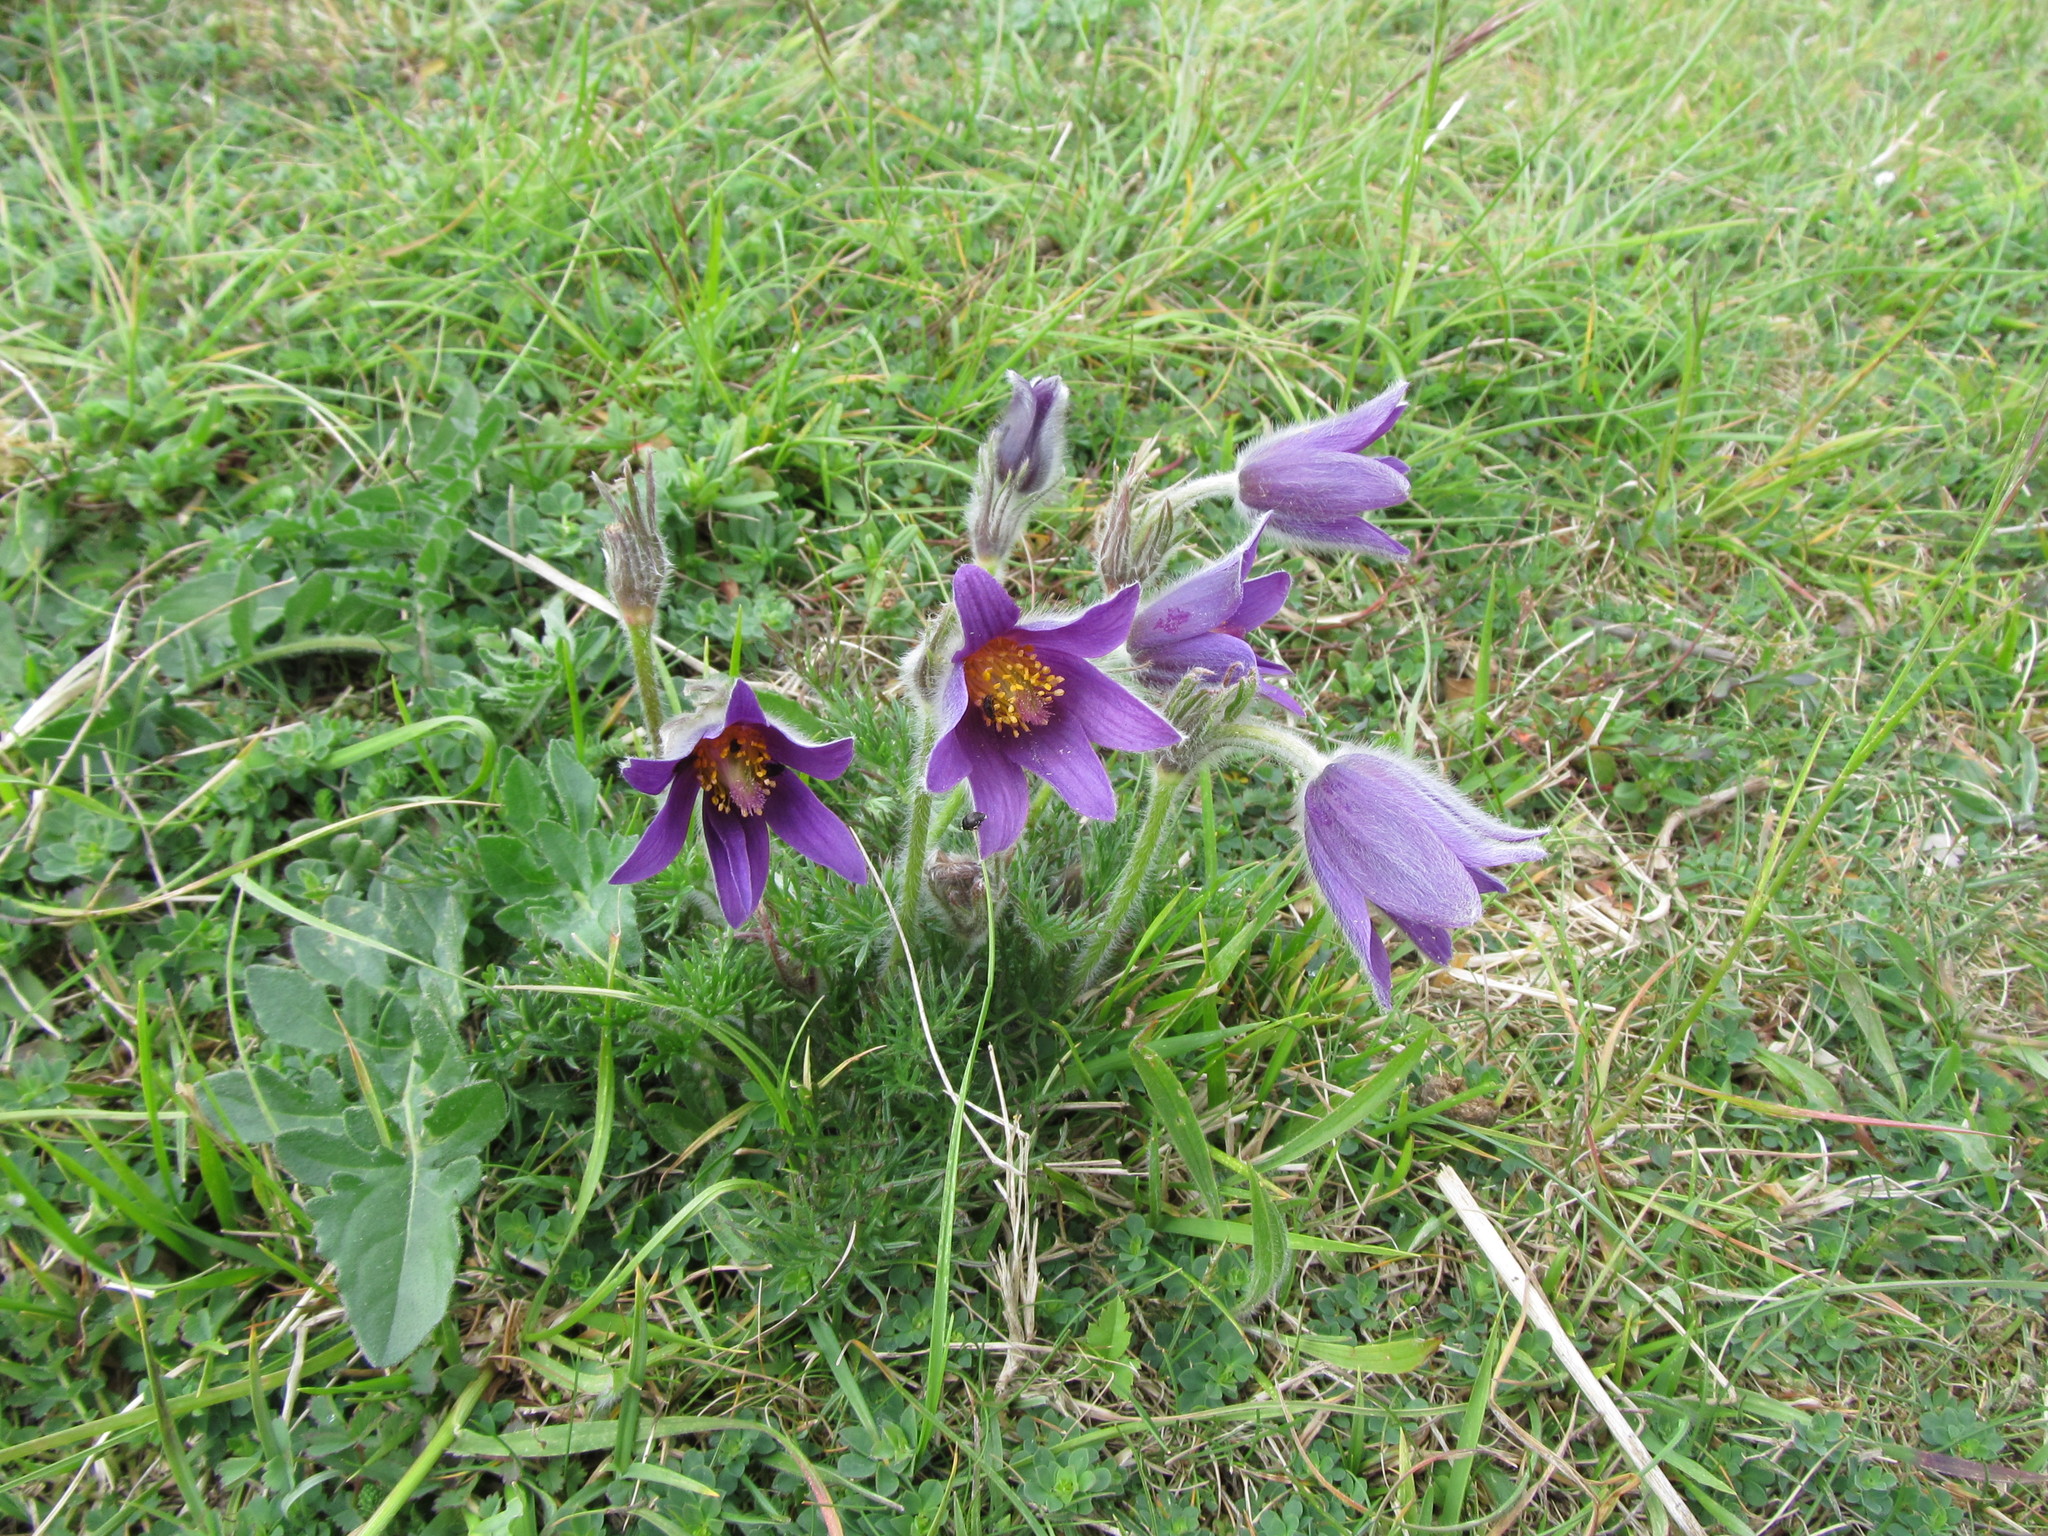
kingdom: Plantae
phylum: Tracheophyta
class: Magnoliopsida
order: Ranunculales
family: Ranunculaceae
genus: Pulsatilla
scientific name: Pulsatilla vulgaris
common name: Pasqueflower
